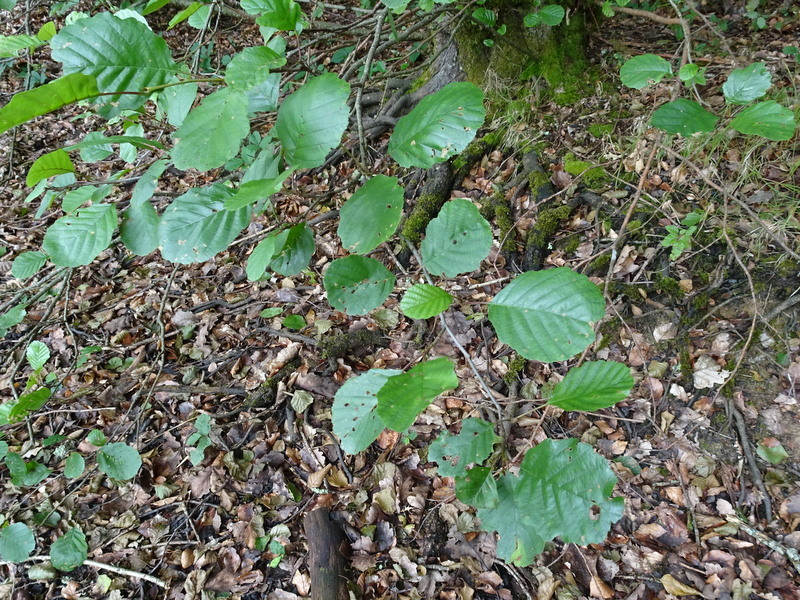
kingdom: Plantae
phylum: Tracheophyta
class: Magnoliopsida
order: Fagales
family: Betulaceae
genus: Alnus
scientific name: Alnus glutinosa
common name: Black alder
